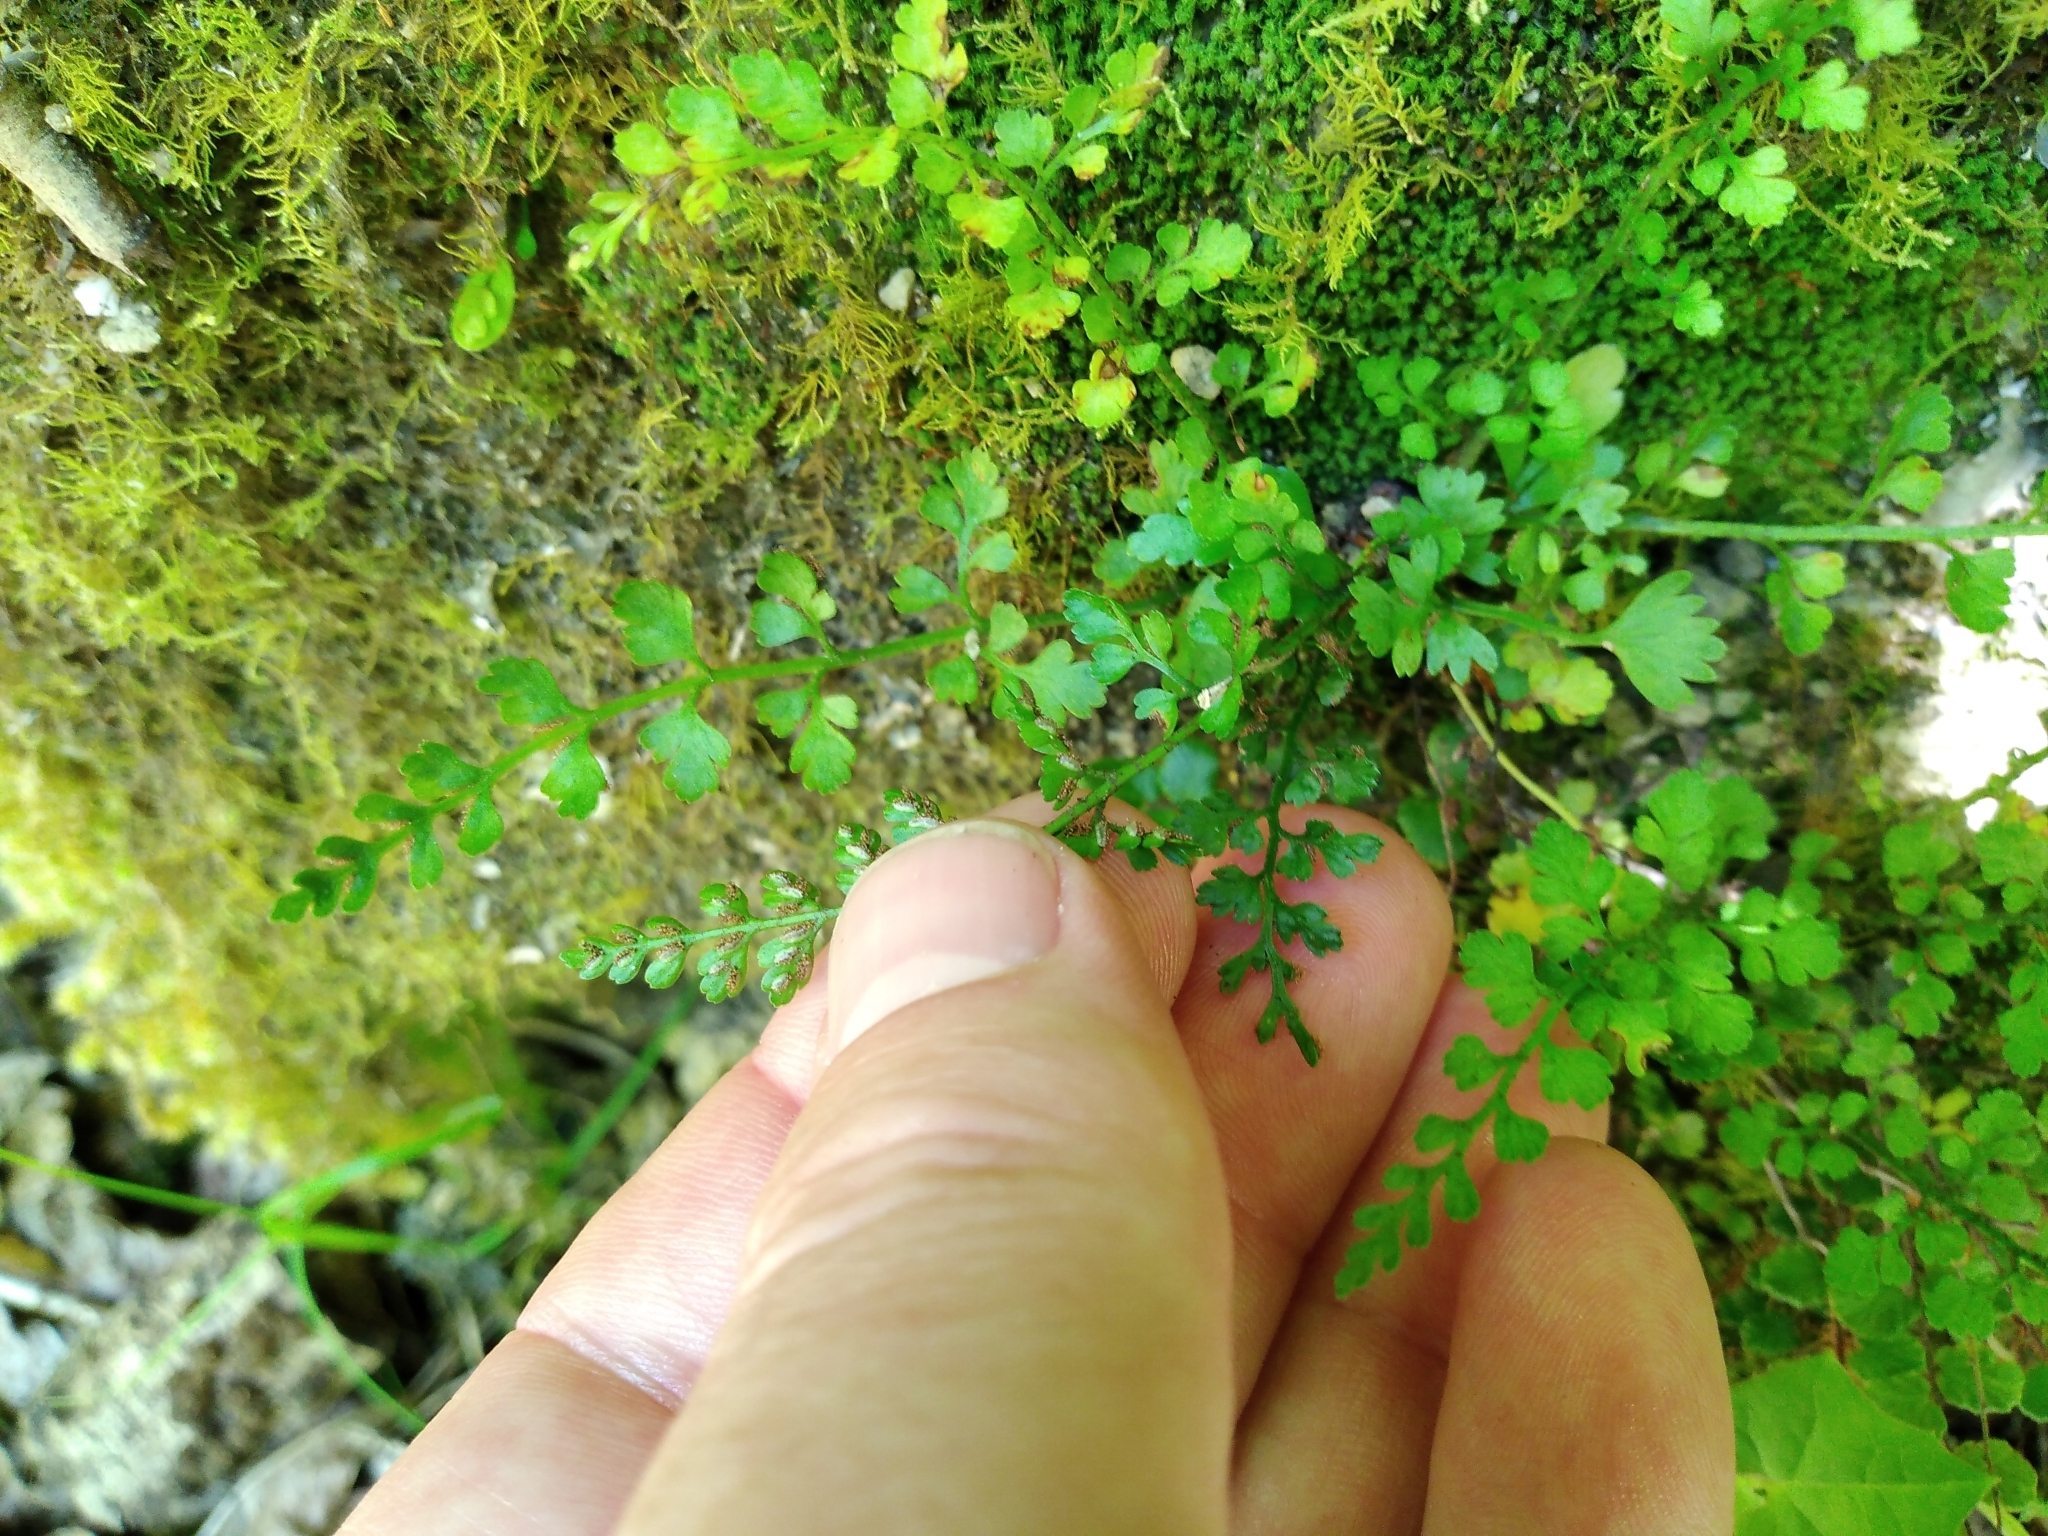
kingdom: Plantae
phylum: Tracheophyta
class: Polypodiopsida
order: Polypodiales
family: Aspleniaceae
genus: Asplenium
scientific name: Asplenium hookerianum
